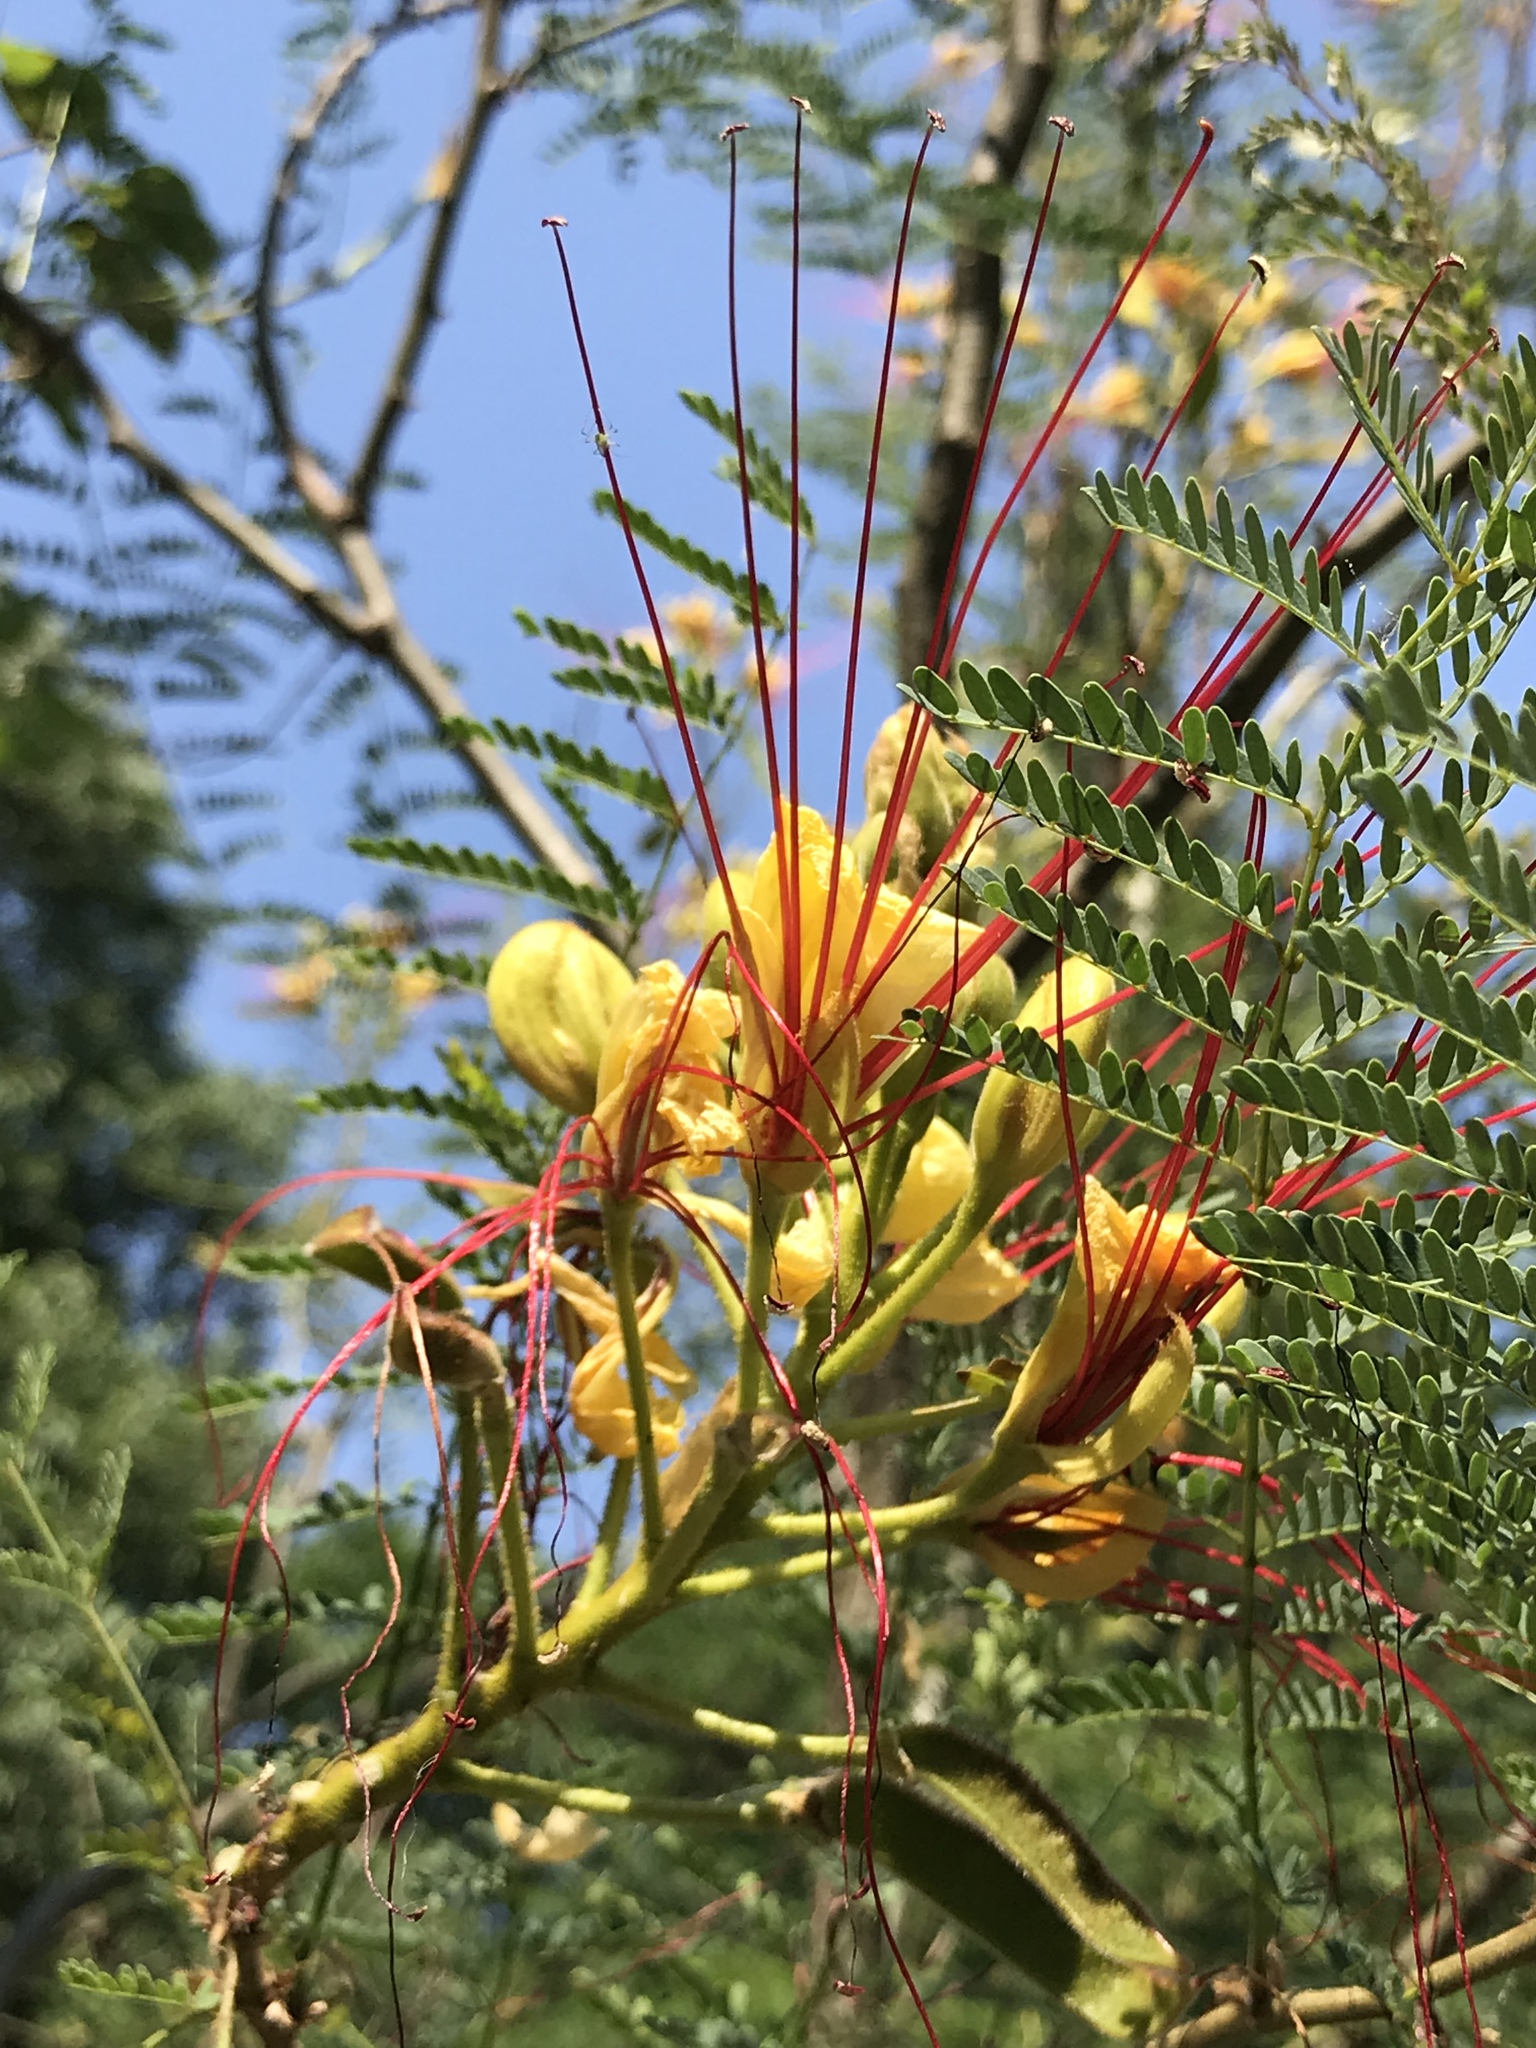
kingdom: Plantae
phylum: Tracheophyta
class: Magnoliopsida
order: Fabales
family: Fabaceae
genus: Erythrostemon
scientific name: Erythrostemon gilliesii
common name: Bird-of-paradise shrub
